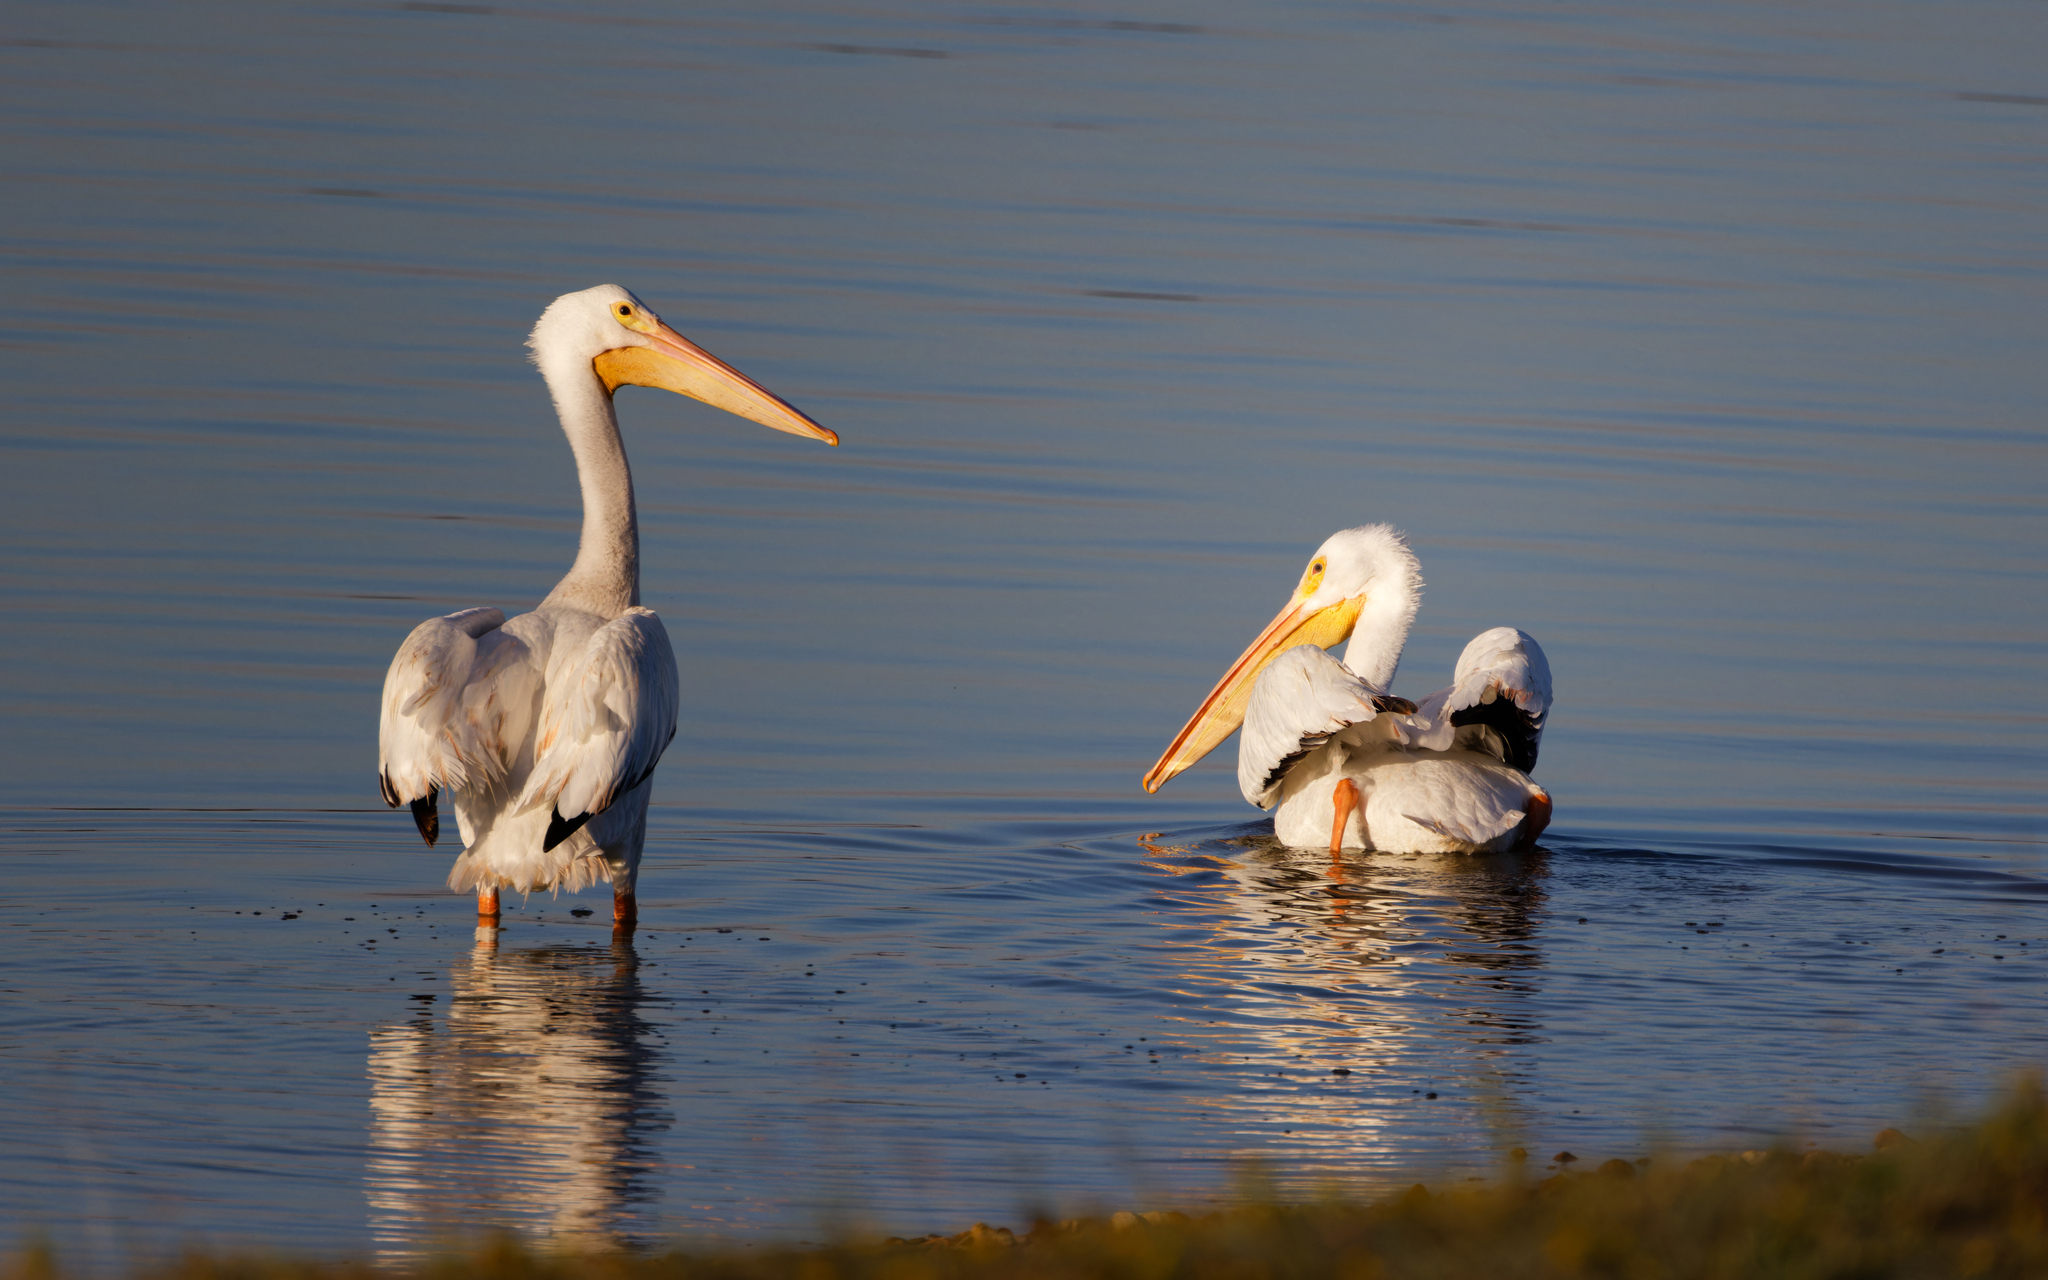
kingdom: Animalia
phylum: Chordata
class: Aves
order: Pelecaniformes
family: Pelecanidae
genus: Pelecanus
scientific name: Pelecanus erythrorhynchos
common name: American white pelican
